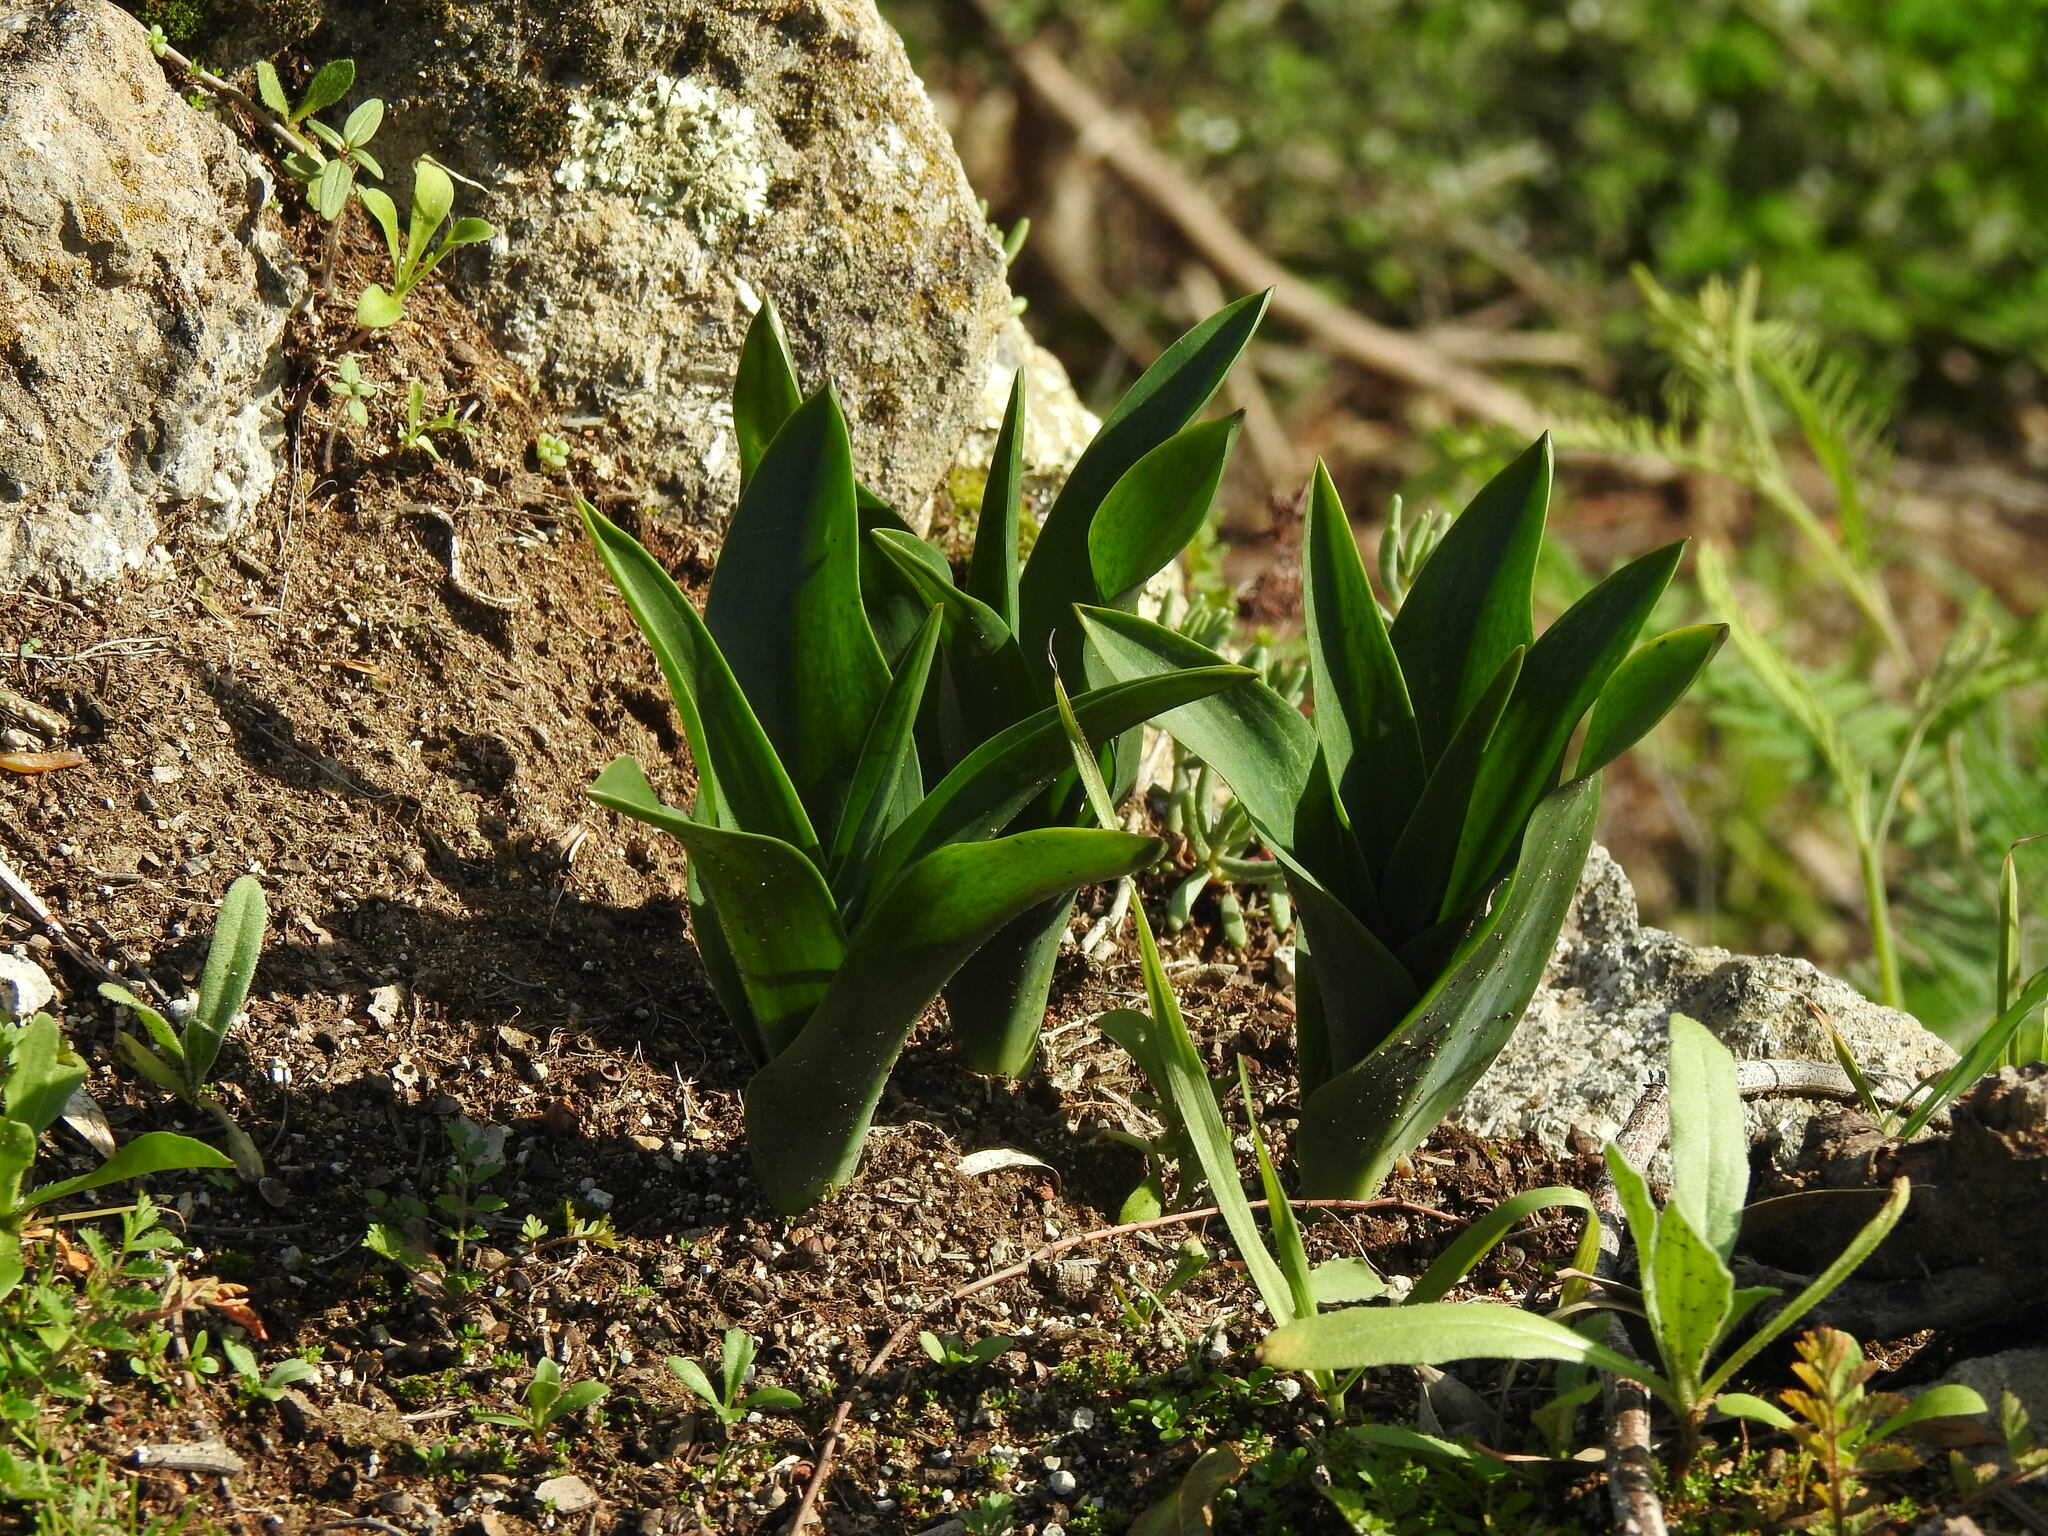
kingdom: Plantae
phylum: Tracheophyta
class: Liliopsida
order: Asparagales
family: Asparagaceae
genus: Drimia
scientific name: Drimia maritima
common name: Maritime squill
